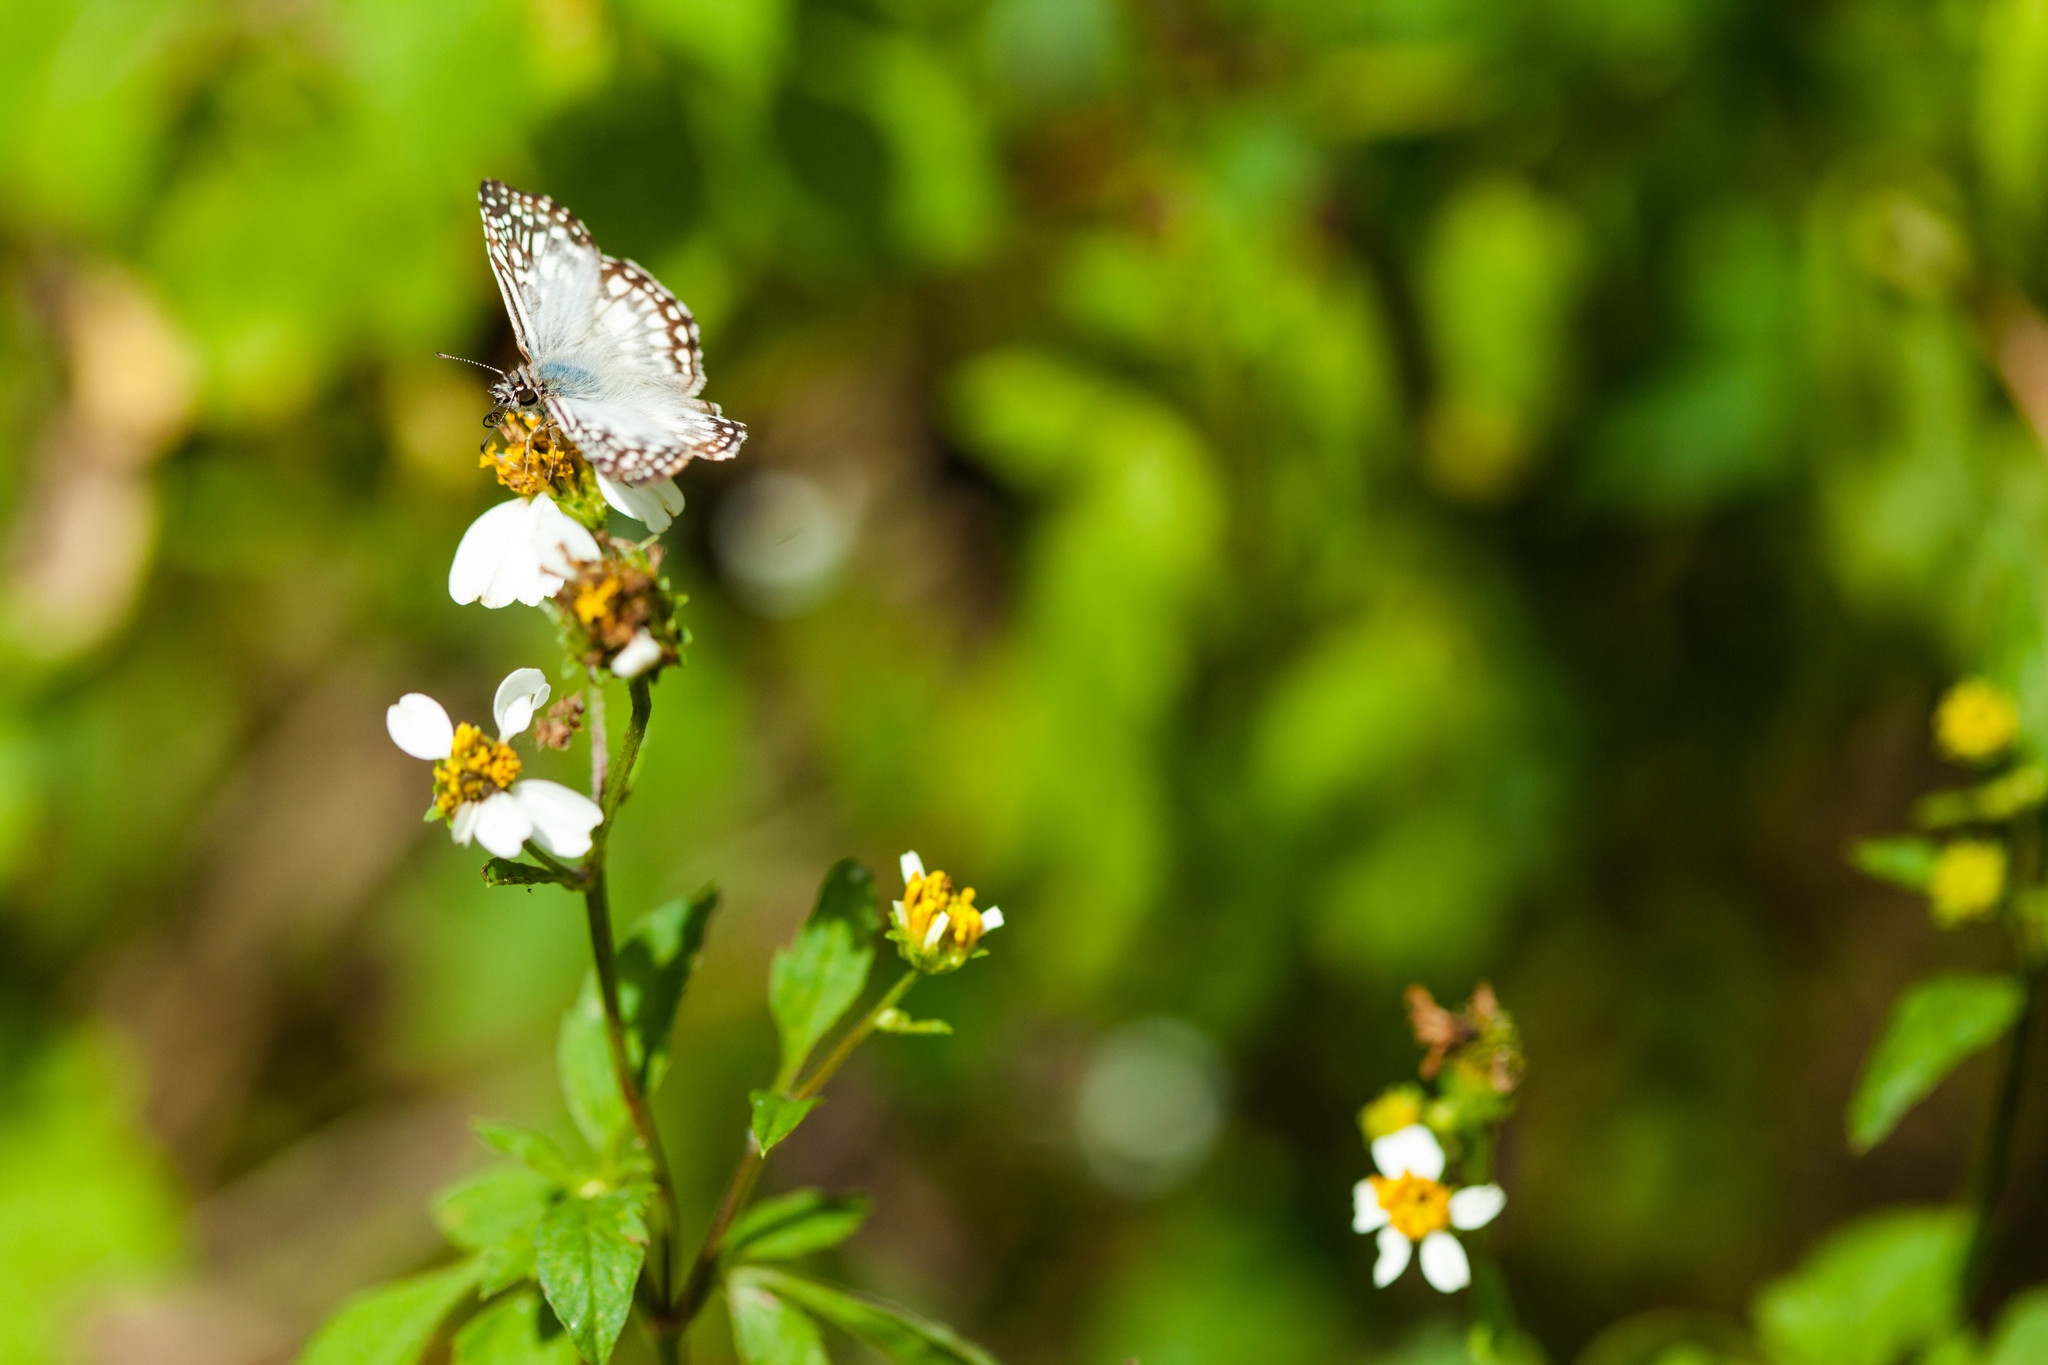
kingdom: Animalia
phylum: Arthropoda
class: Insecta
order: Lepidoptera
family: Hesperiidae
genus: Pyrgus
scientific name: Pyrgus oileus
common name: Tropical checkered-skipper
